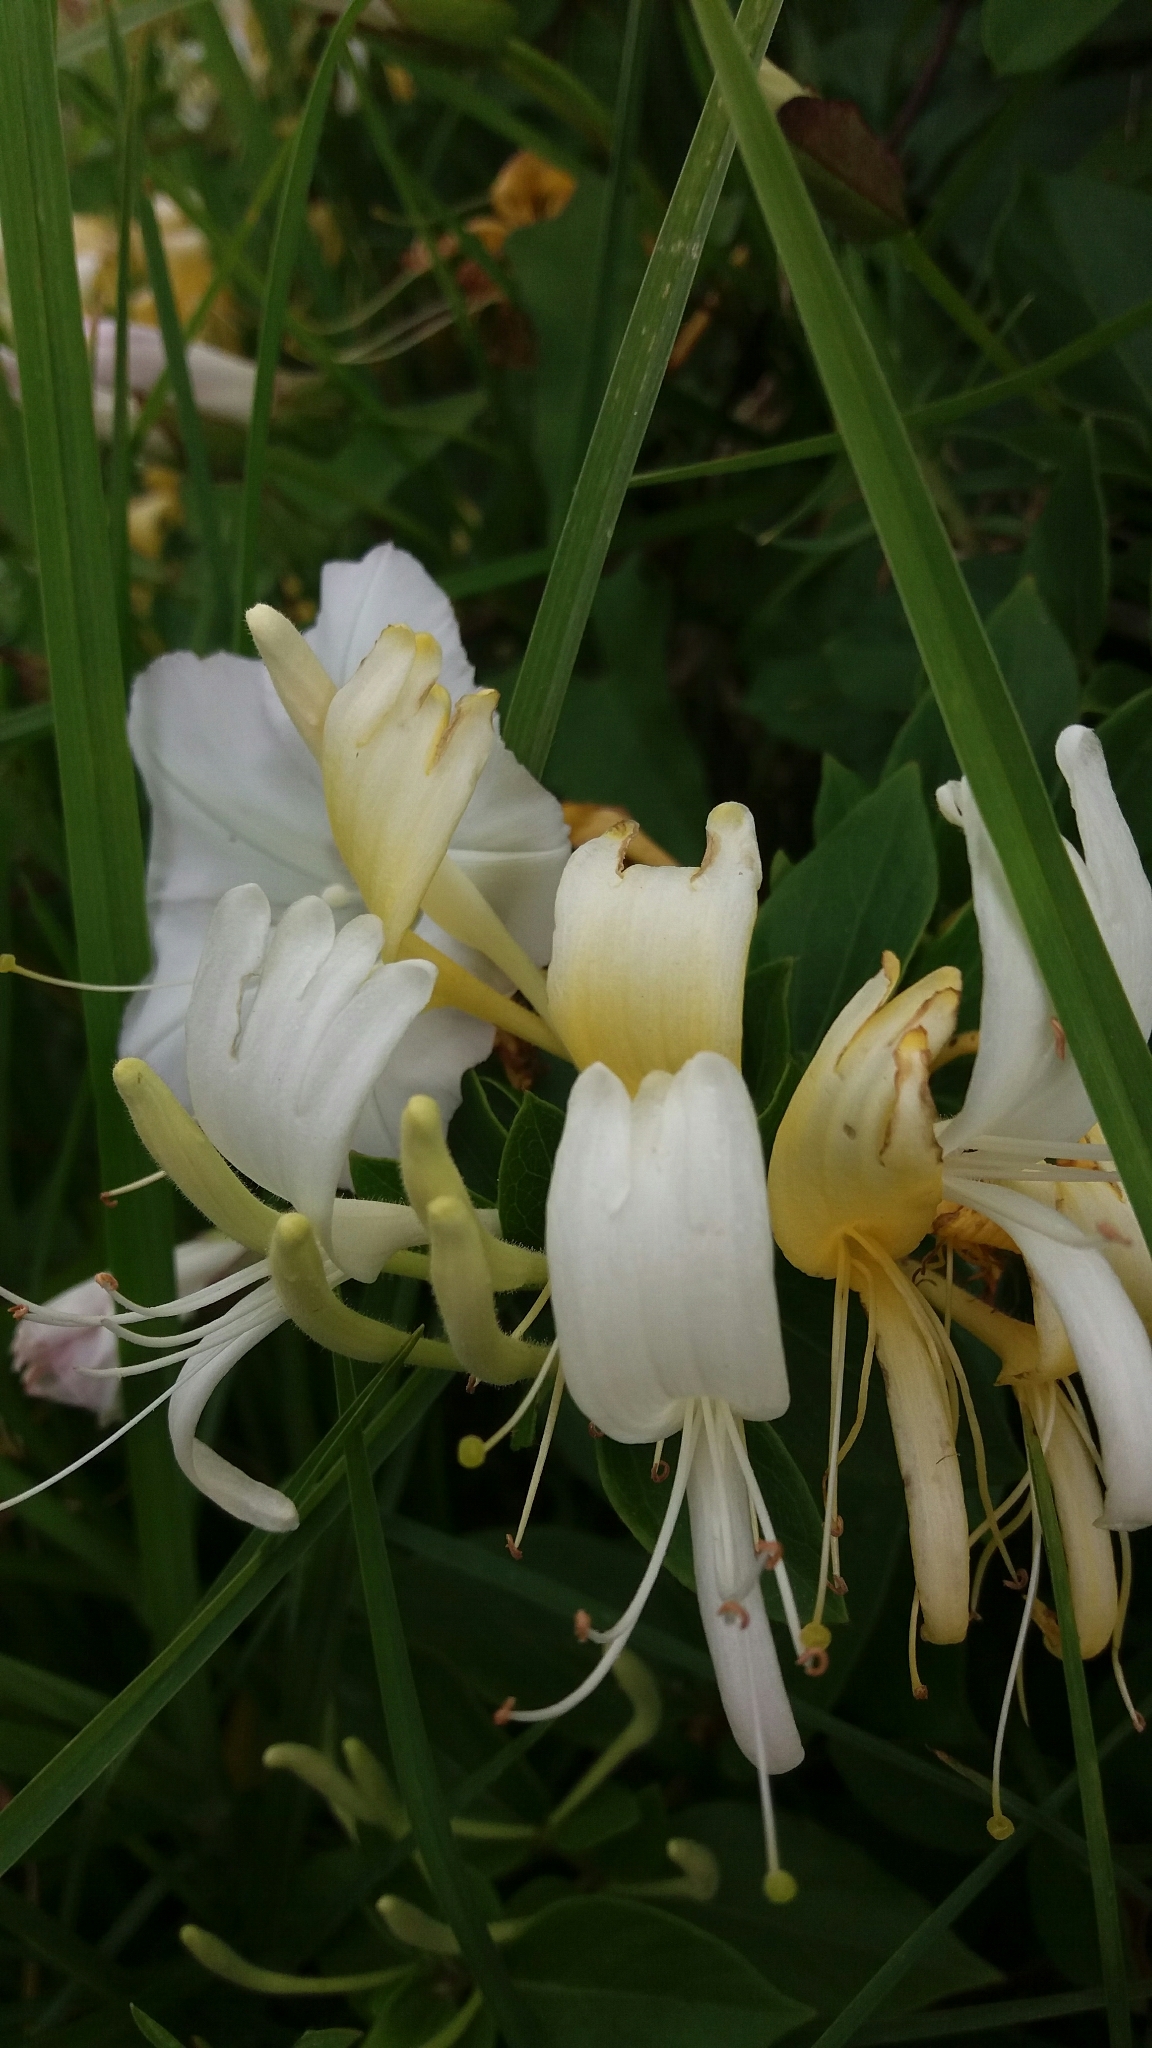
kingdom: Plantae
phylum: Tracheophyta
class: Magnoliopsida
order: Dipsacales
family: Caprifoliaceae
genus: Lonicera
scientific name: Lonicera japonica
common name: Japanese honeysuckle
